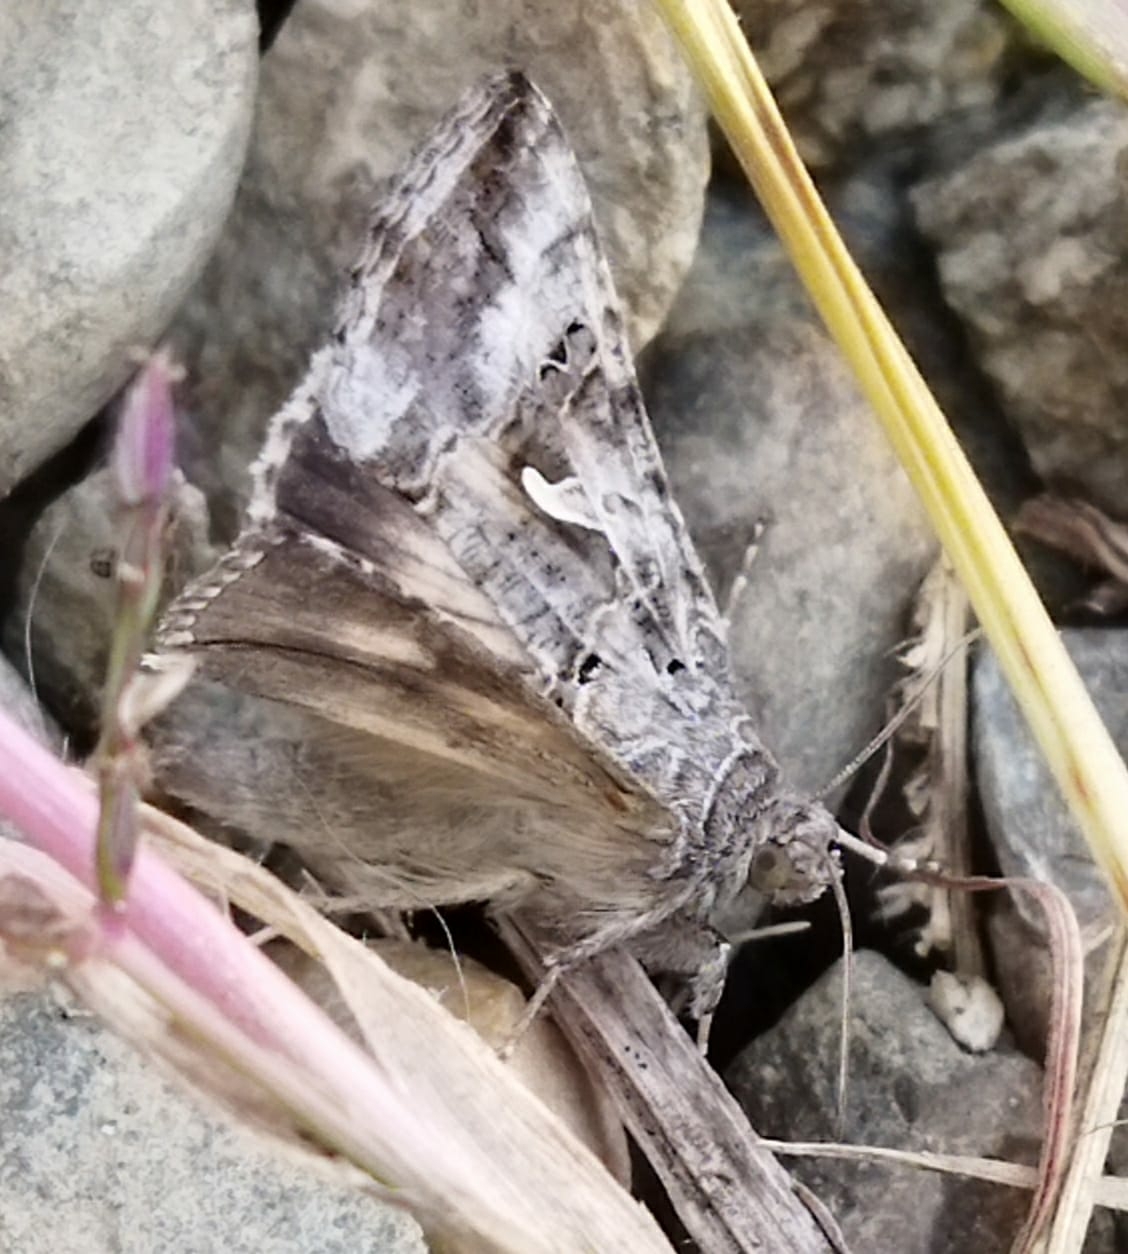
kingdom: Animalia
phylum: Arthropoda
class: Insecta
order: Lepidoptera
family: Noctuidae
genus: Autographa
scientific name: Autographa gamma
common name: Silver y
